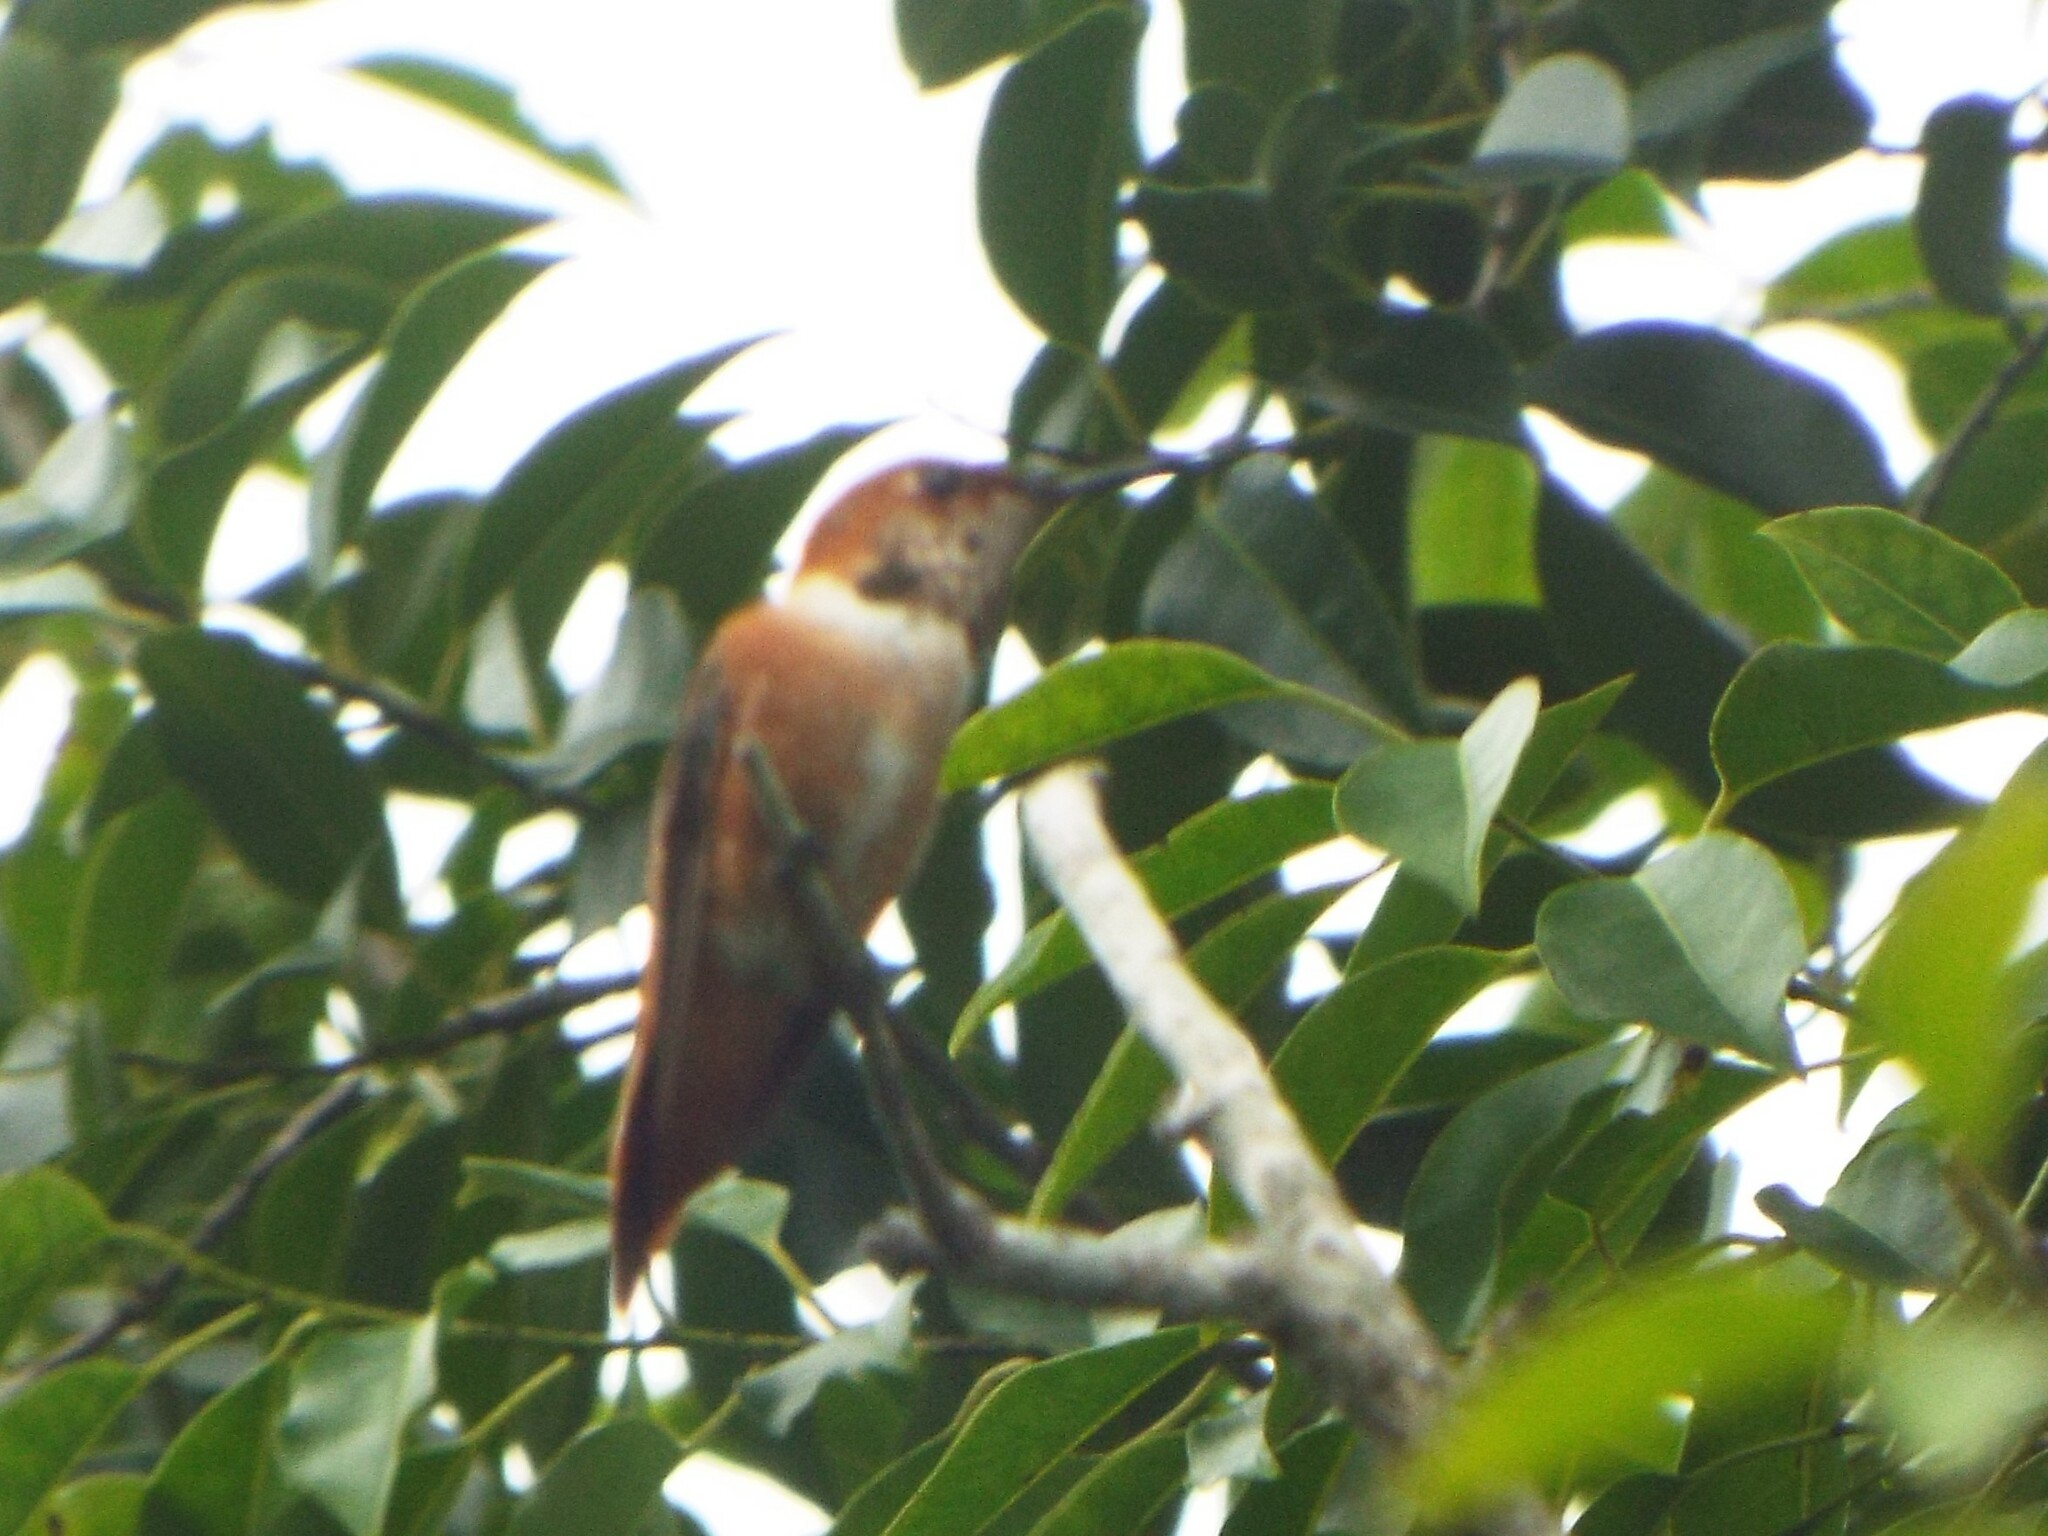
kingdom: Animalia
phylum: Chordata
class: Aves
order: Apodiformes
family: Trochilidae
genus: Selasphorus
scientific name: Selasphorus rufus
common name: Rufous hummingbird
